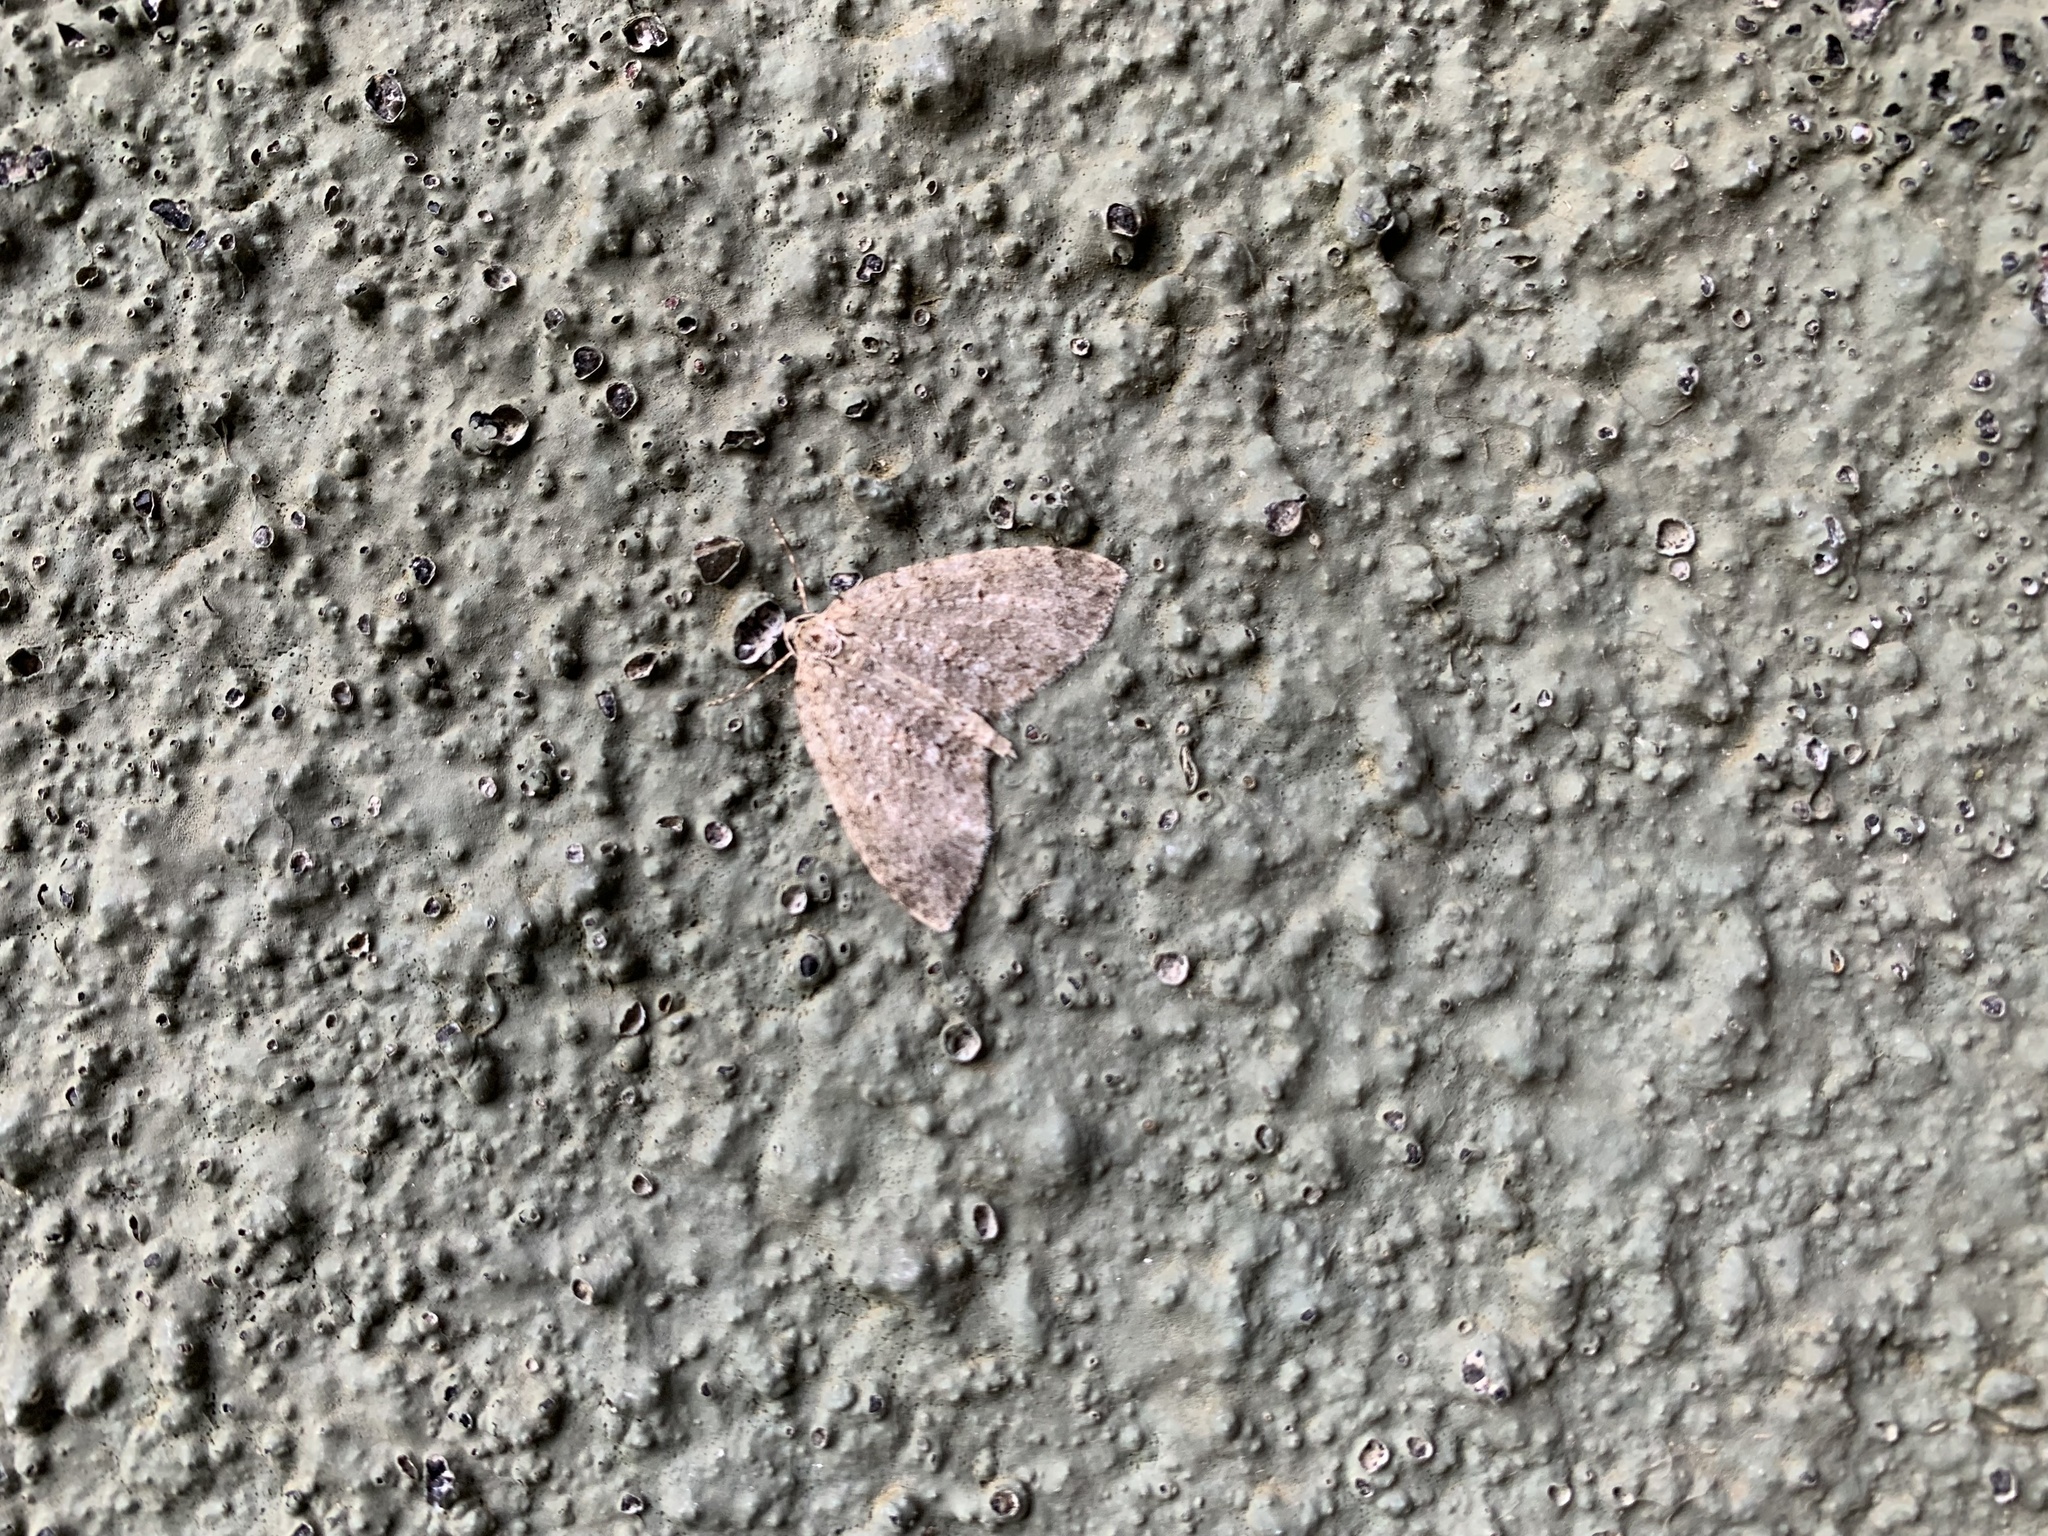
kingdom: Animalia
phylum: Arthropoda
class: Insecta
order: Lepidoptera
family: Geometridae
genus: Hoplosauris
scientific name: Hoplosauris
